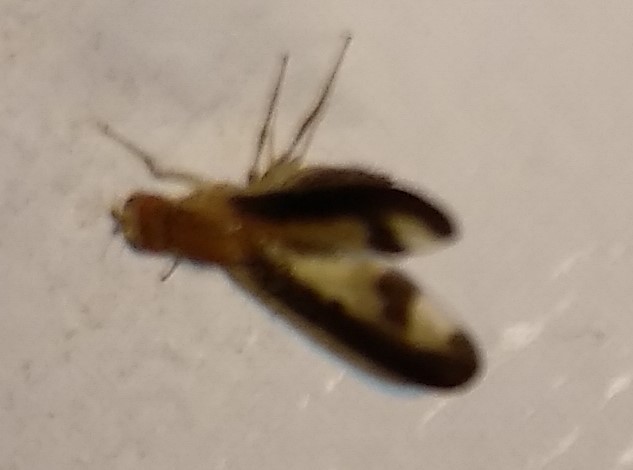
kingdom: Animalia
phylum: Arthropoda
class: Insecta
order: Diptera
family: Pallopteridae
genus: Toxonevra
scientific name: Toxonevra superba
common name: Antlered flutter fly
